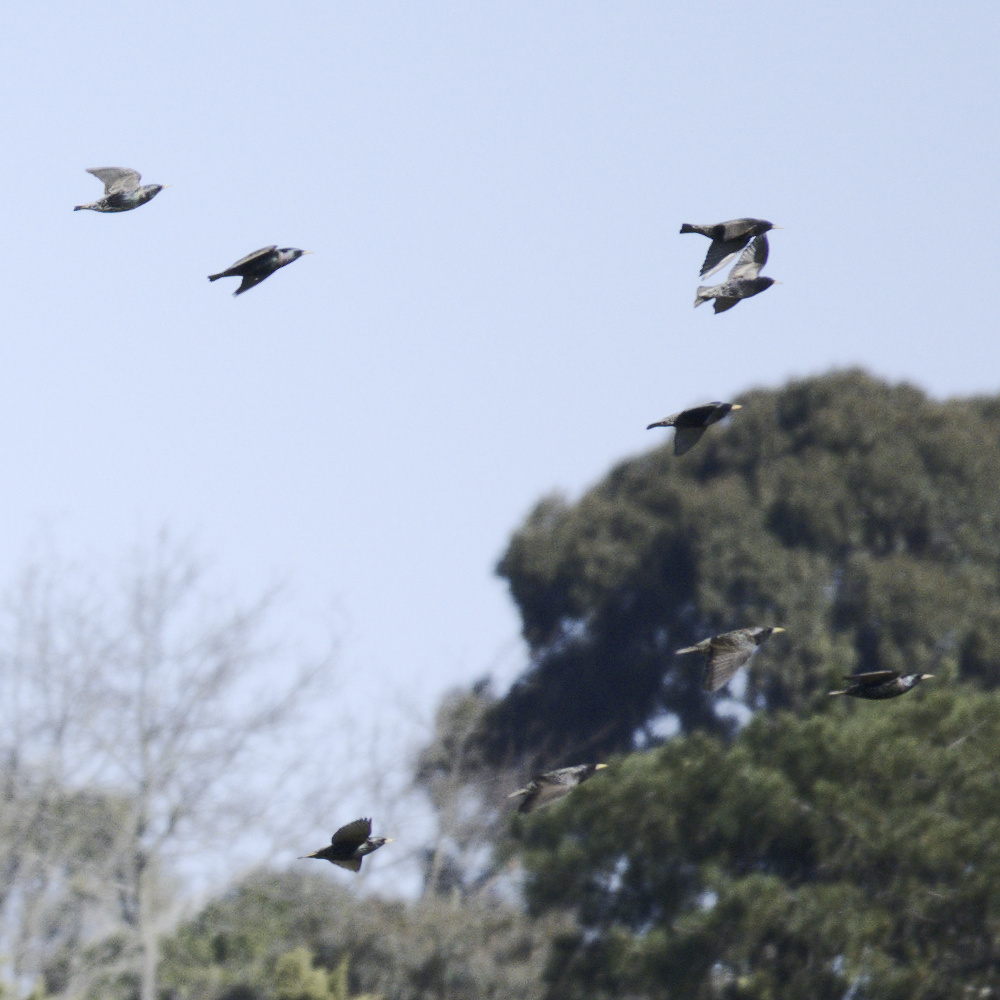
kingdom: Animalia
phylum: Chordata
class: Aves
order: Passeriformes
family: Sturnidae
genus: Sturnus
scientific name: Sturnus vulgaris
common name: Common starling
